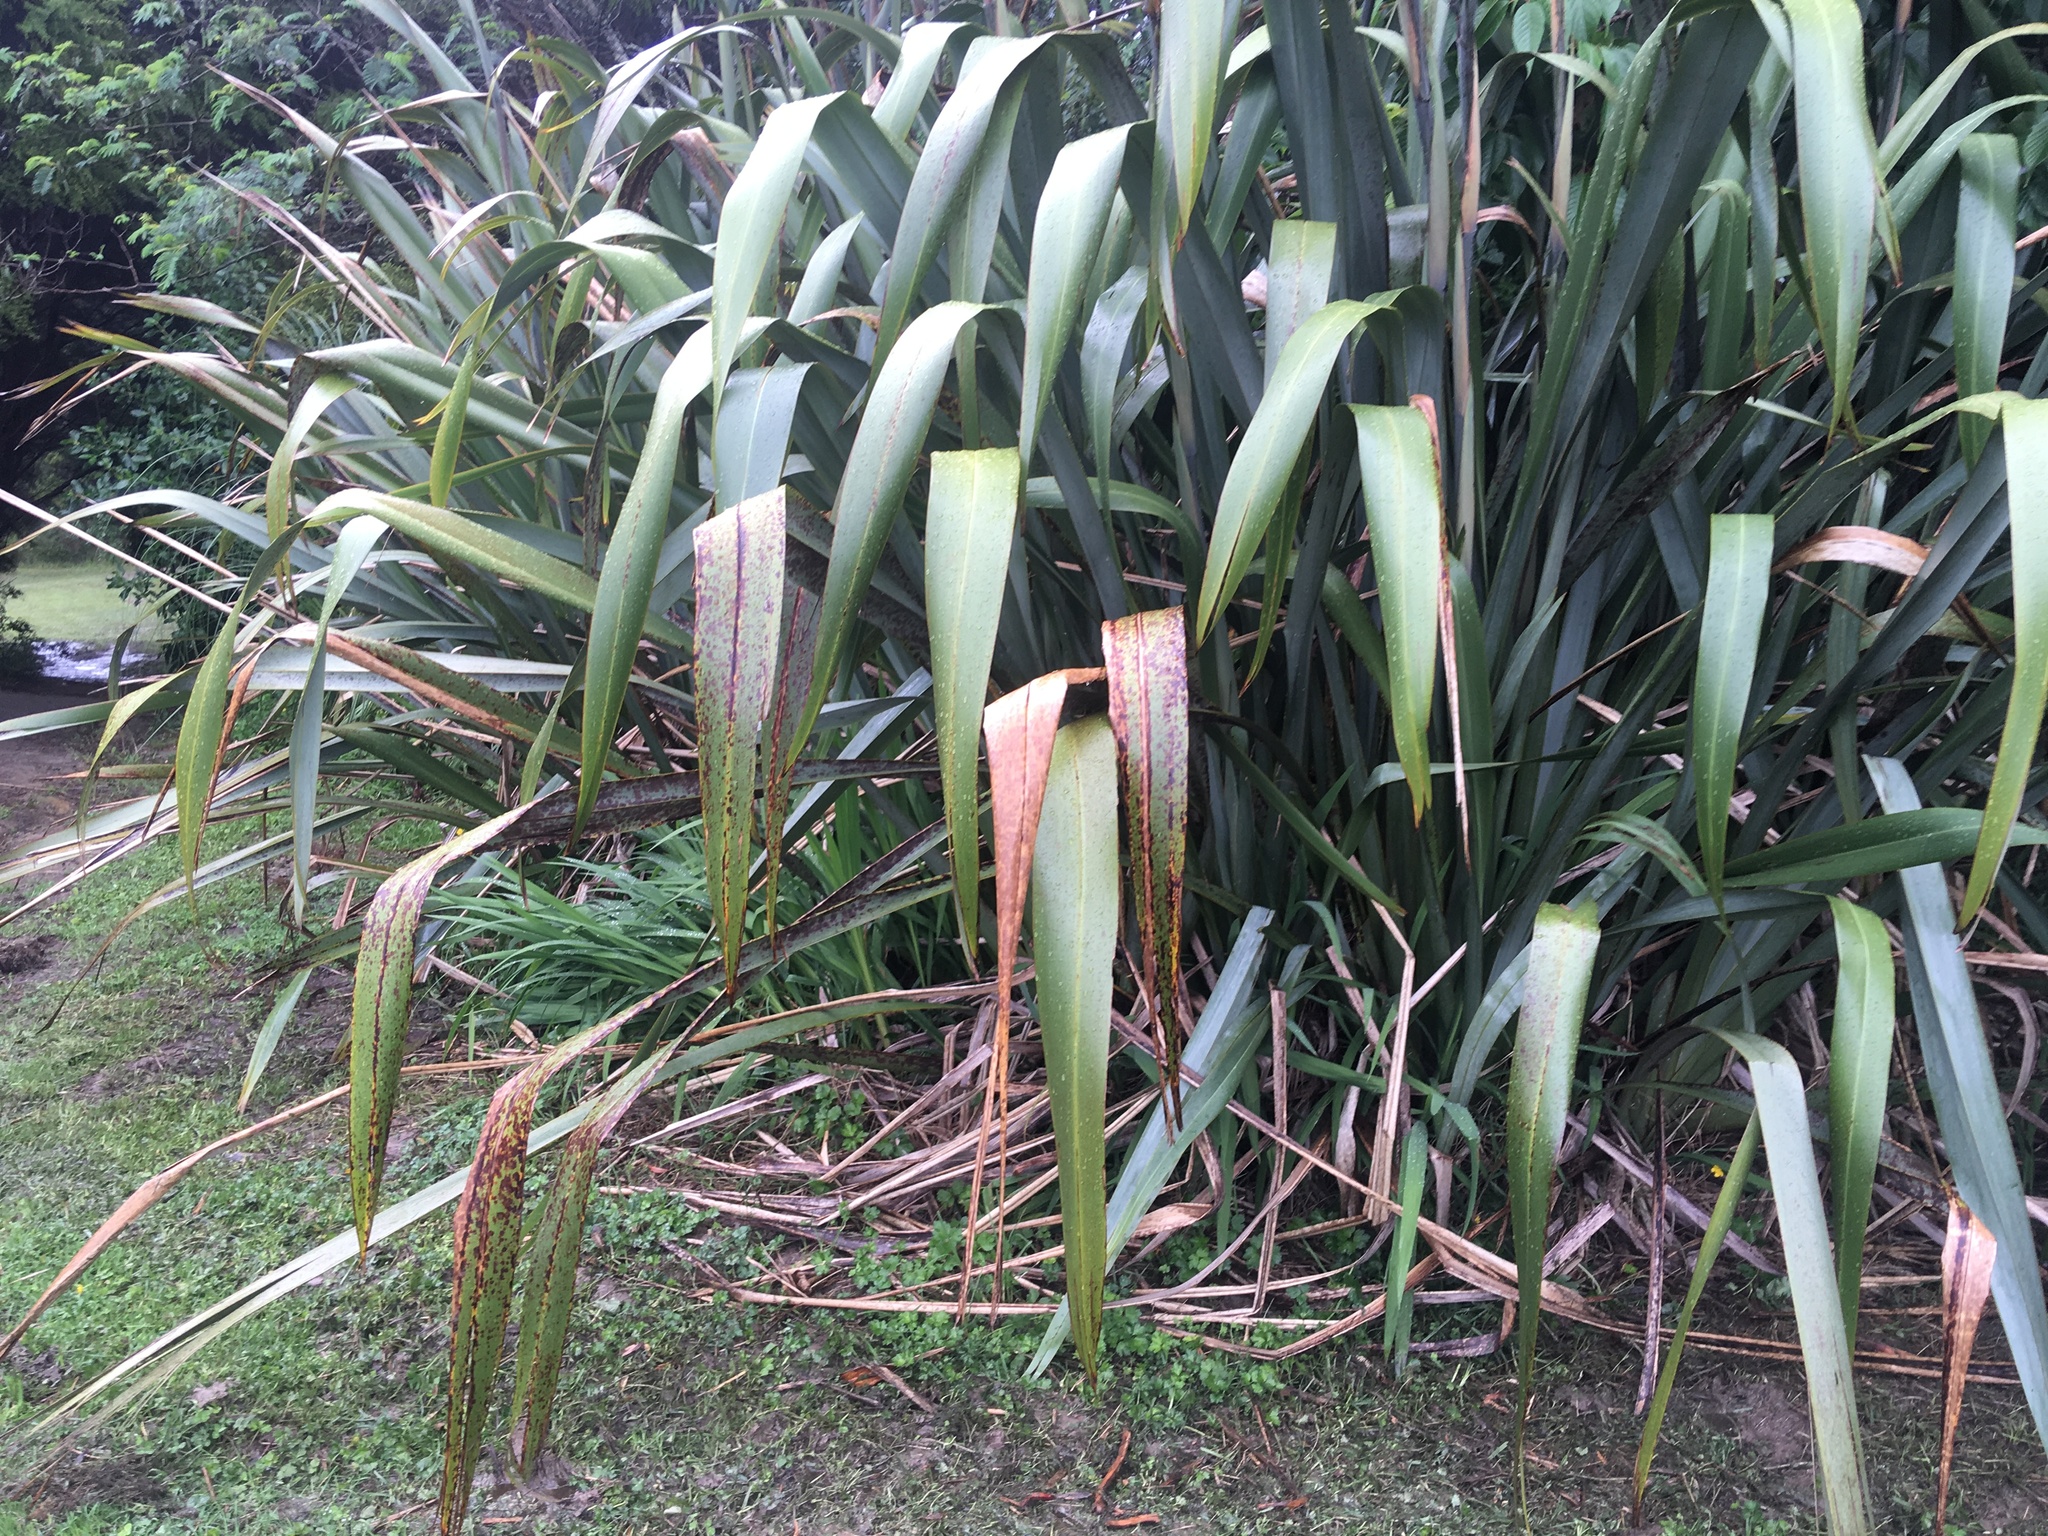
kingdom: Plantae
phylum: Tracheophyta
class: Magnoliopsida
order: Fabales
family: Fabaceae
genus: Paraserianthes
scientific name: Paraserianthes lophantha
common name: Plume albizia
